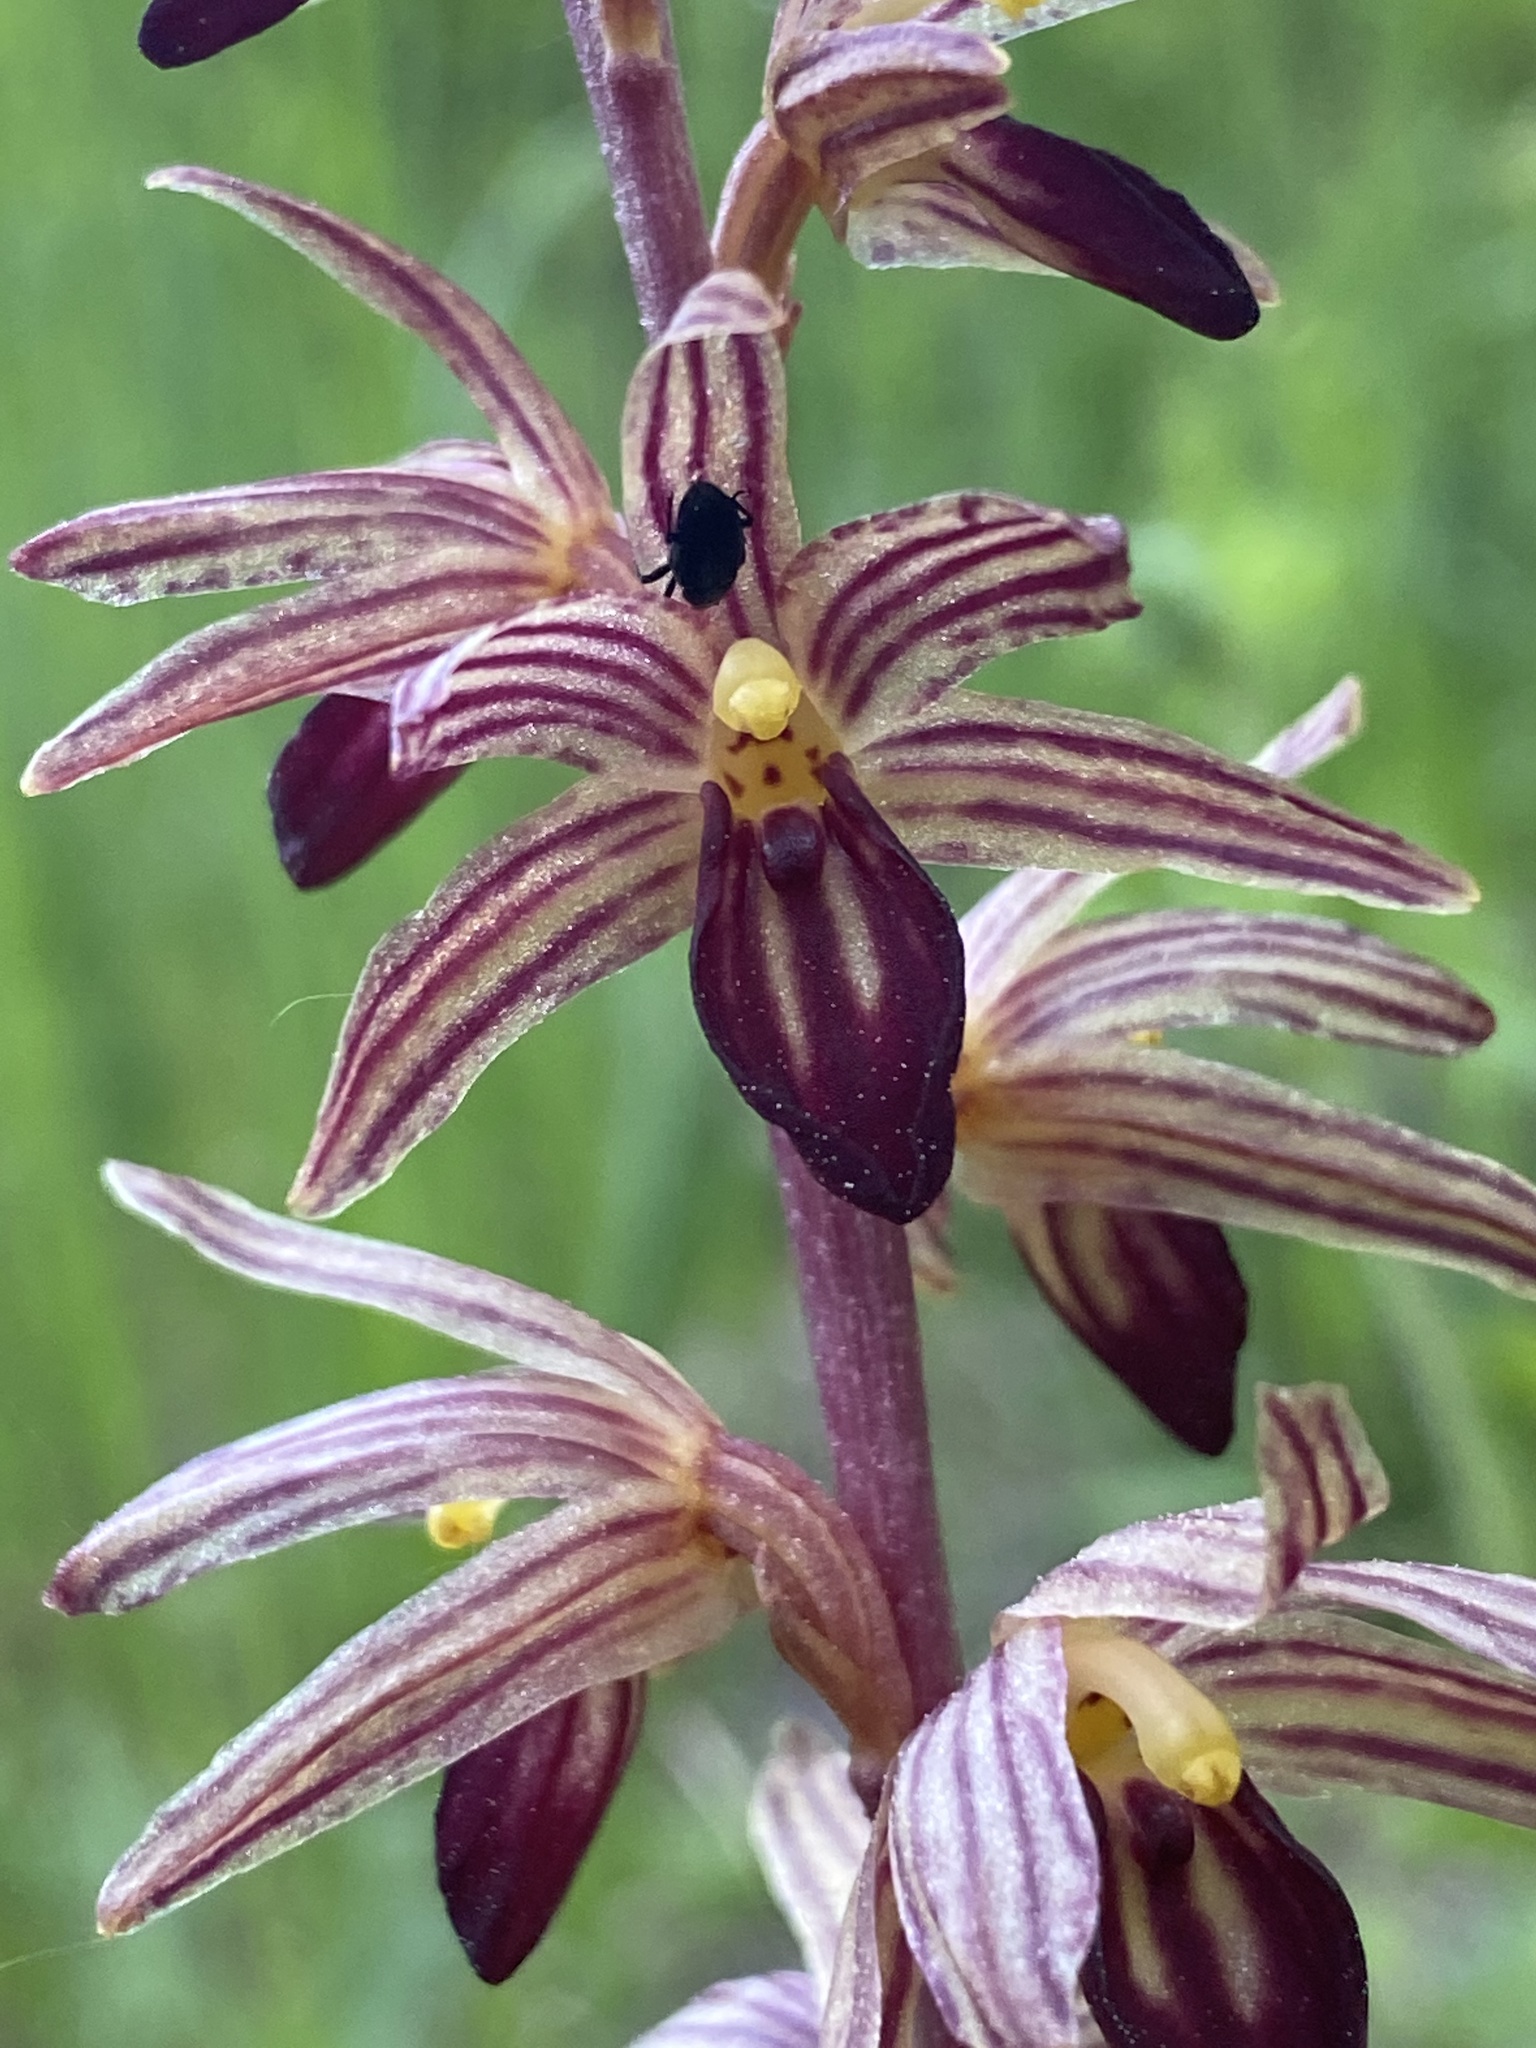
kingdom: Plantae
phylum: Tracheophyta
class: Liliopsida
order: Asparagales
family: Orchidaceae
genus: Corallorhiza
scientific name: Corallorhiza striata
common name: Hooded coralroot
